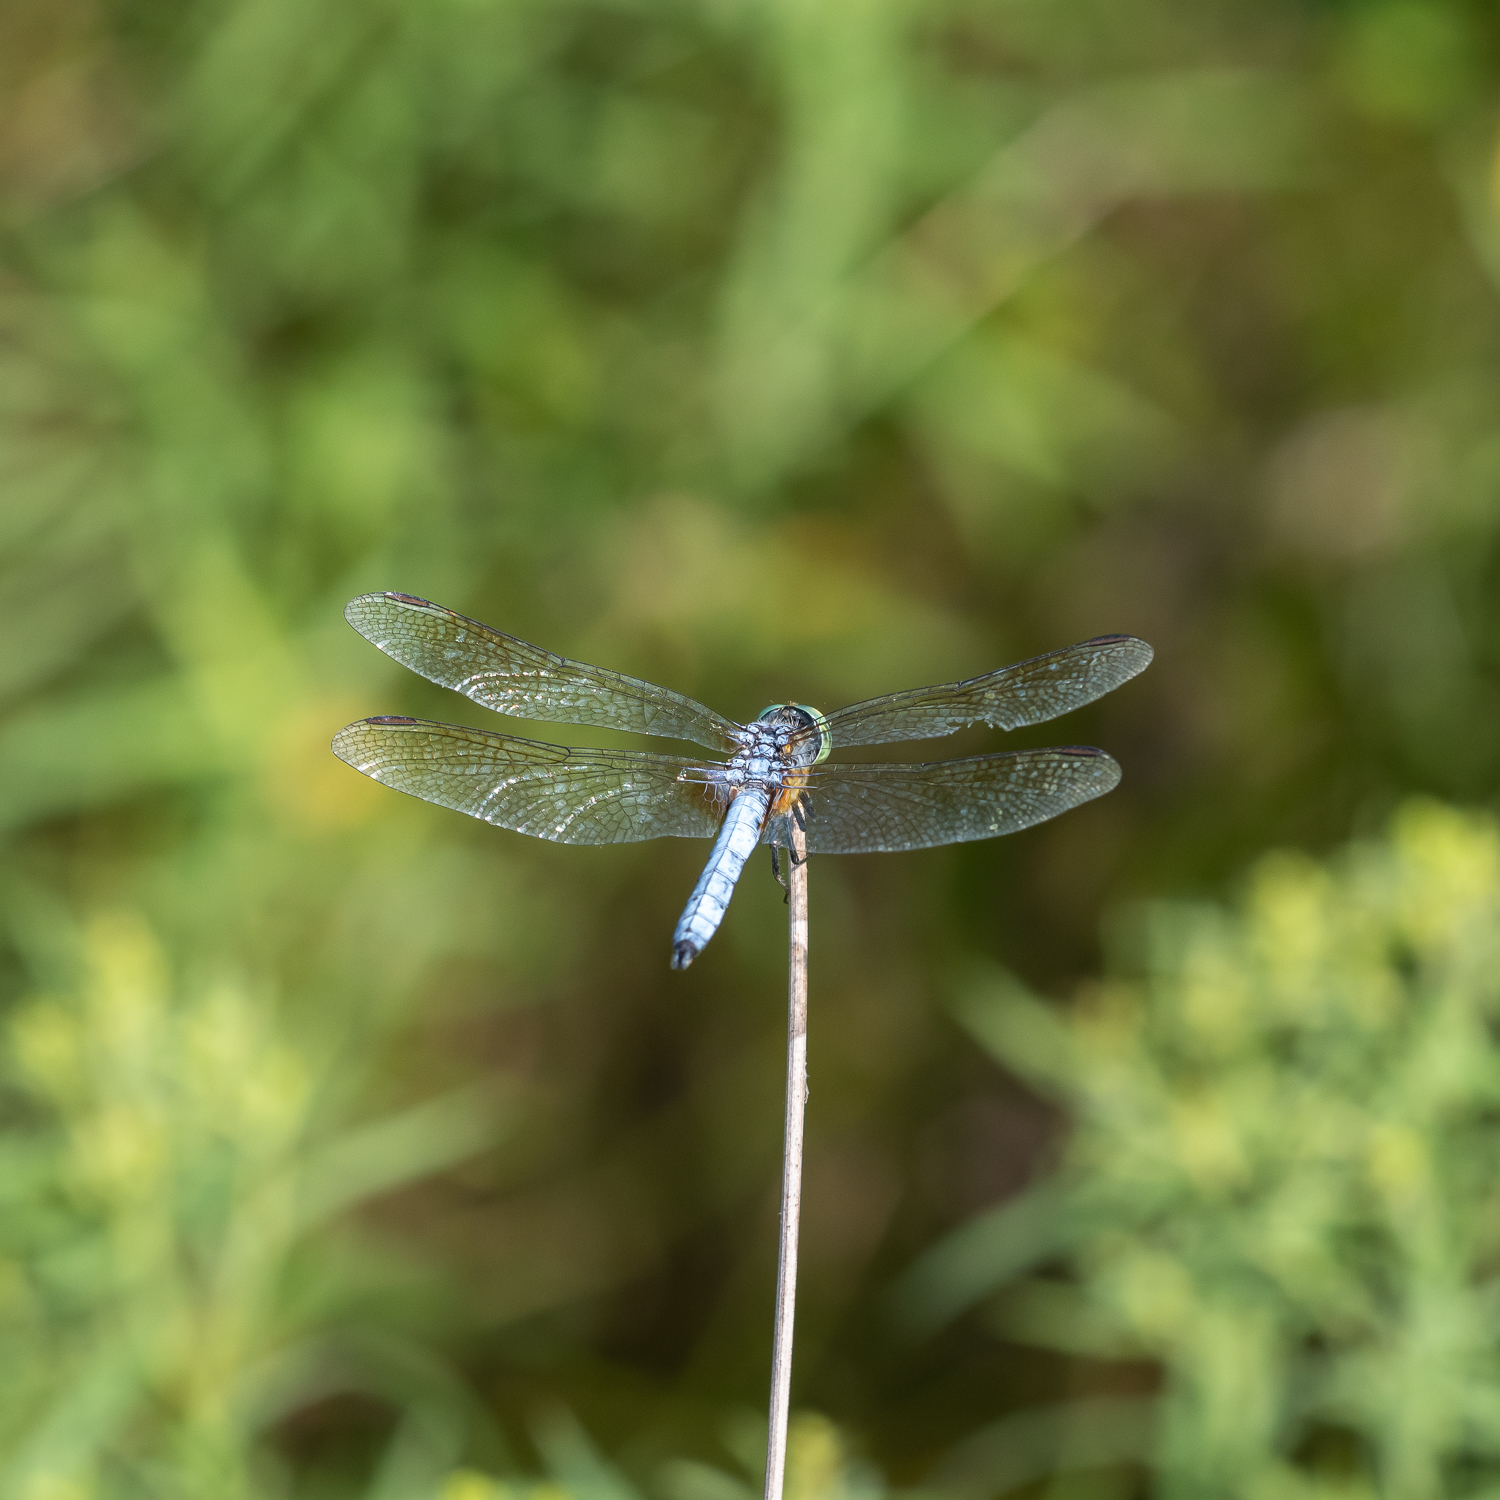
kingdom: Animalia
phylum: Arthropoda
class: Insecta
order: Odonata
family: Libellulidae
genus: Pachydiplax
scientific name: Pachydiplax longipennis
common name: Blue dasher
